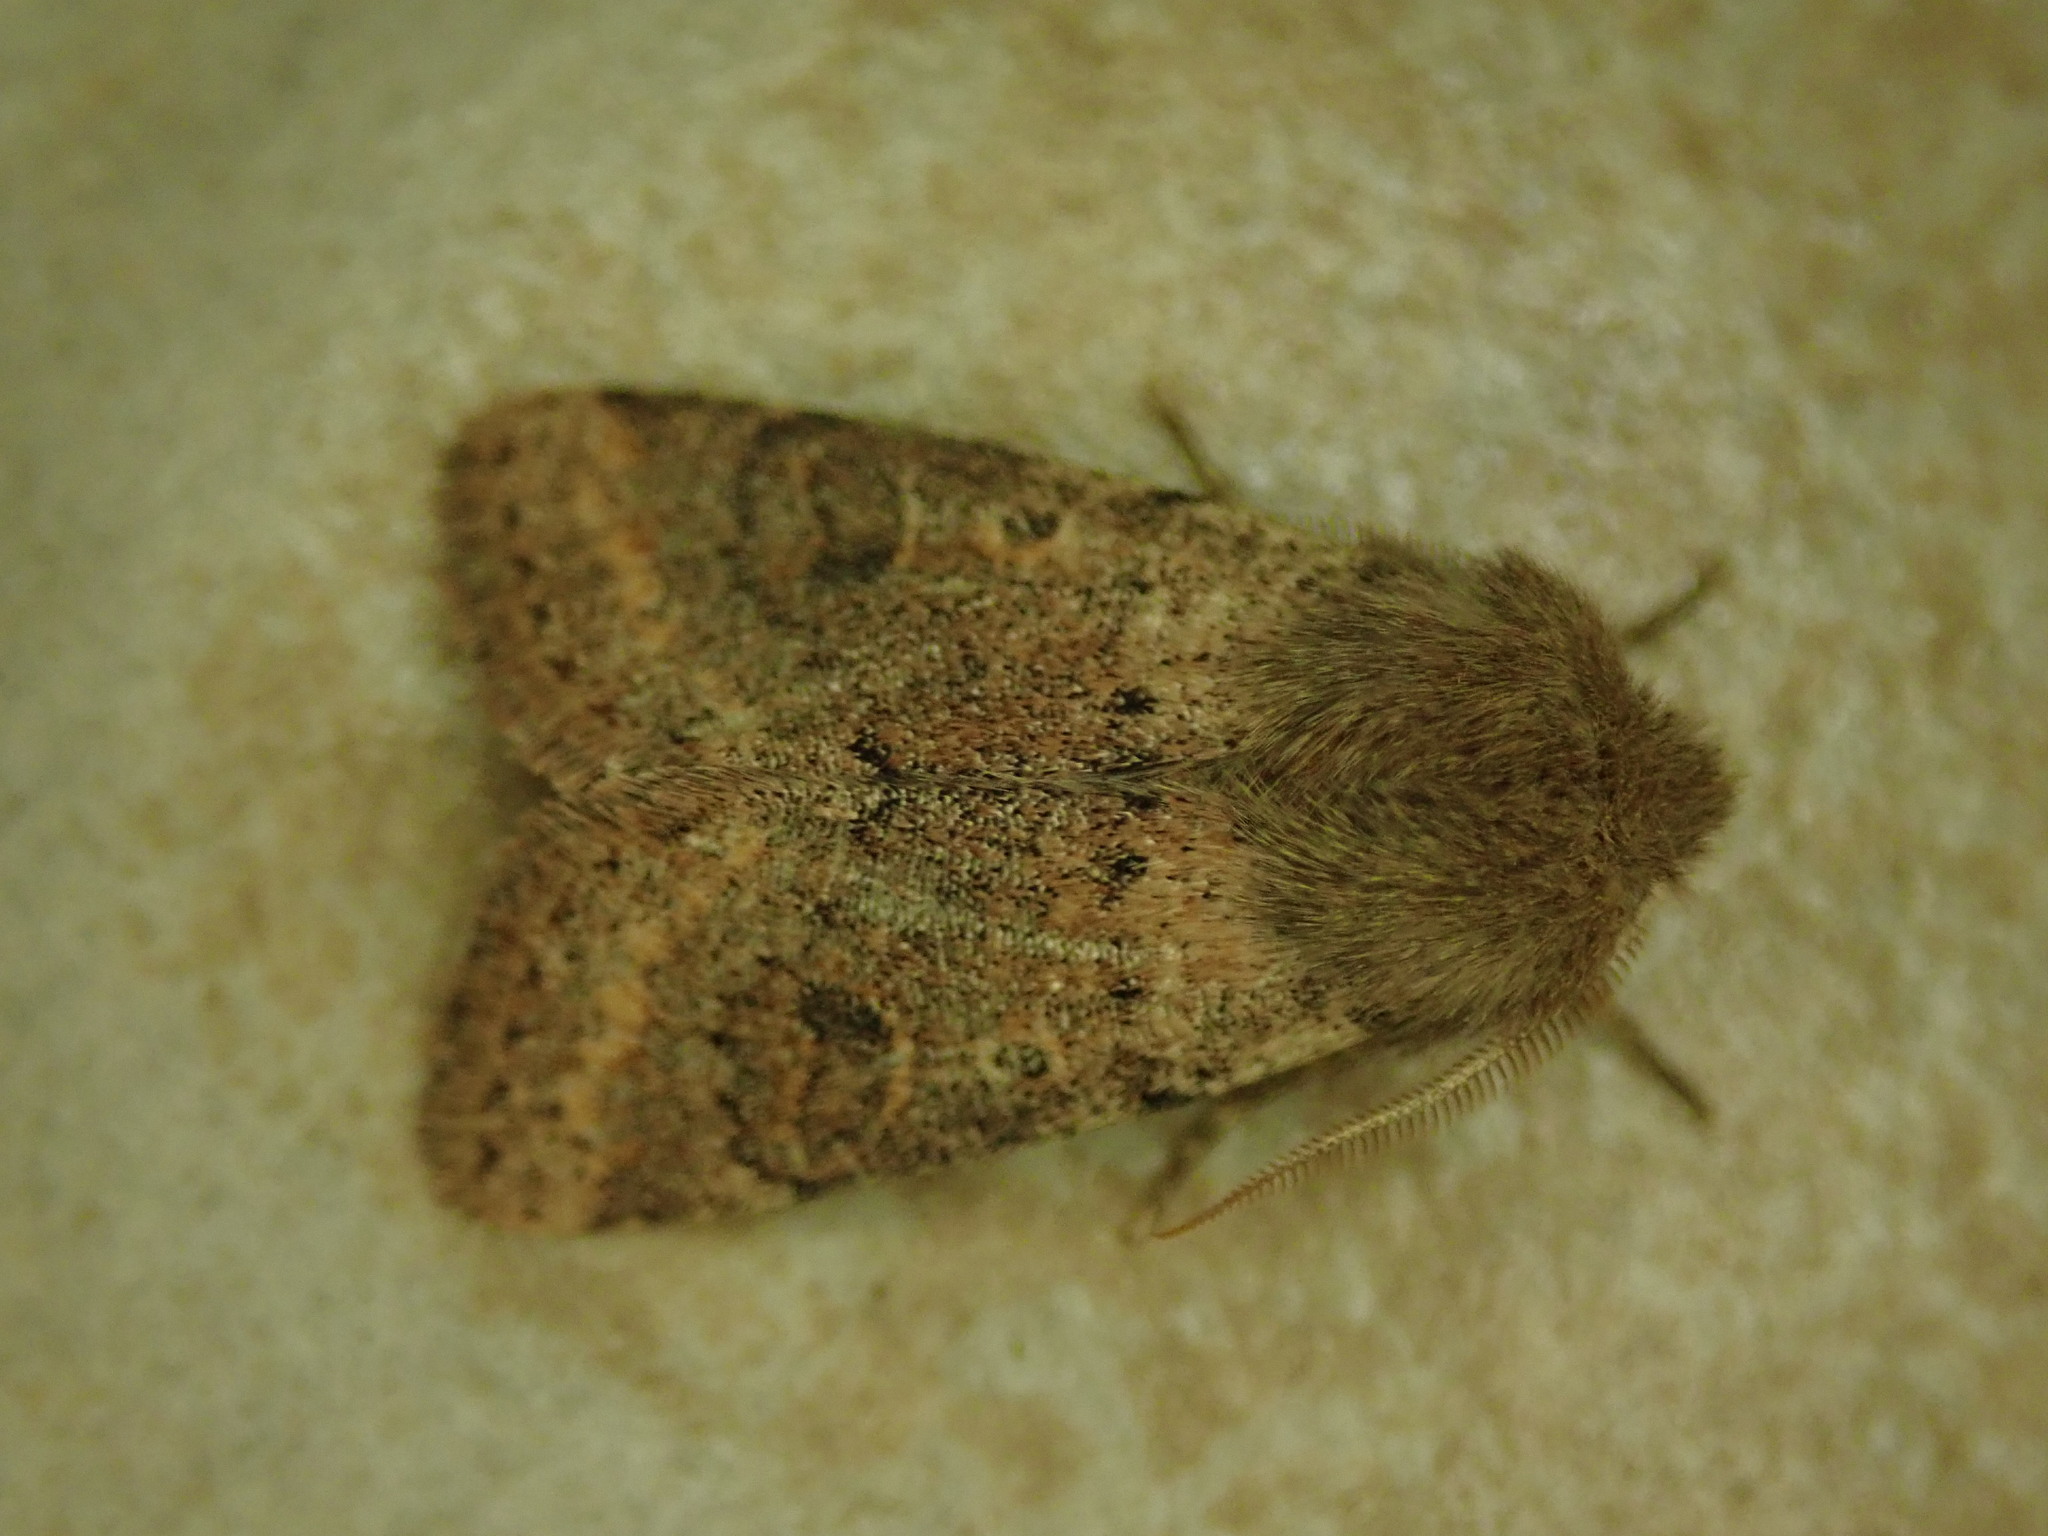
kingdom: Animalia
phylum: Arthropoda
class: Insecta
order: Lepidoptera
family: Noctuidae
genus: Orthosia
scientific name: Orthosia cruda
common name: Small quaker
